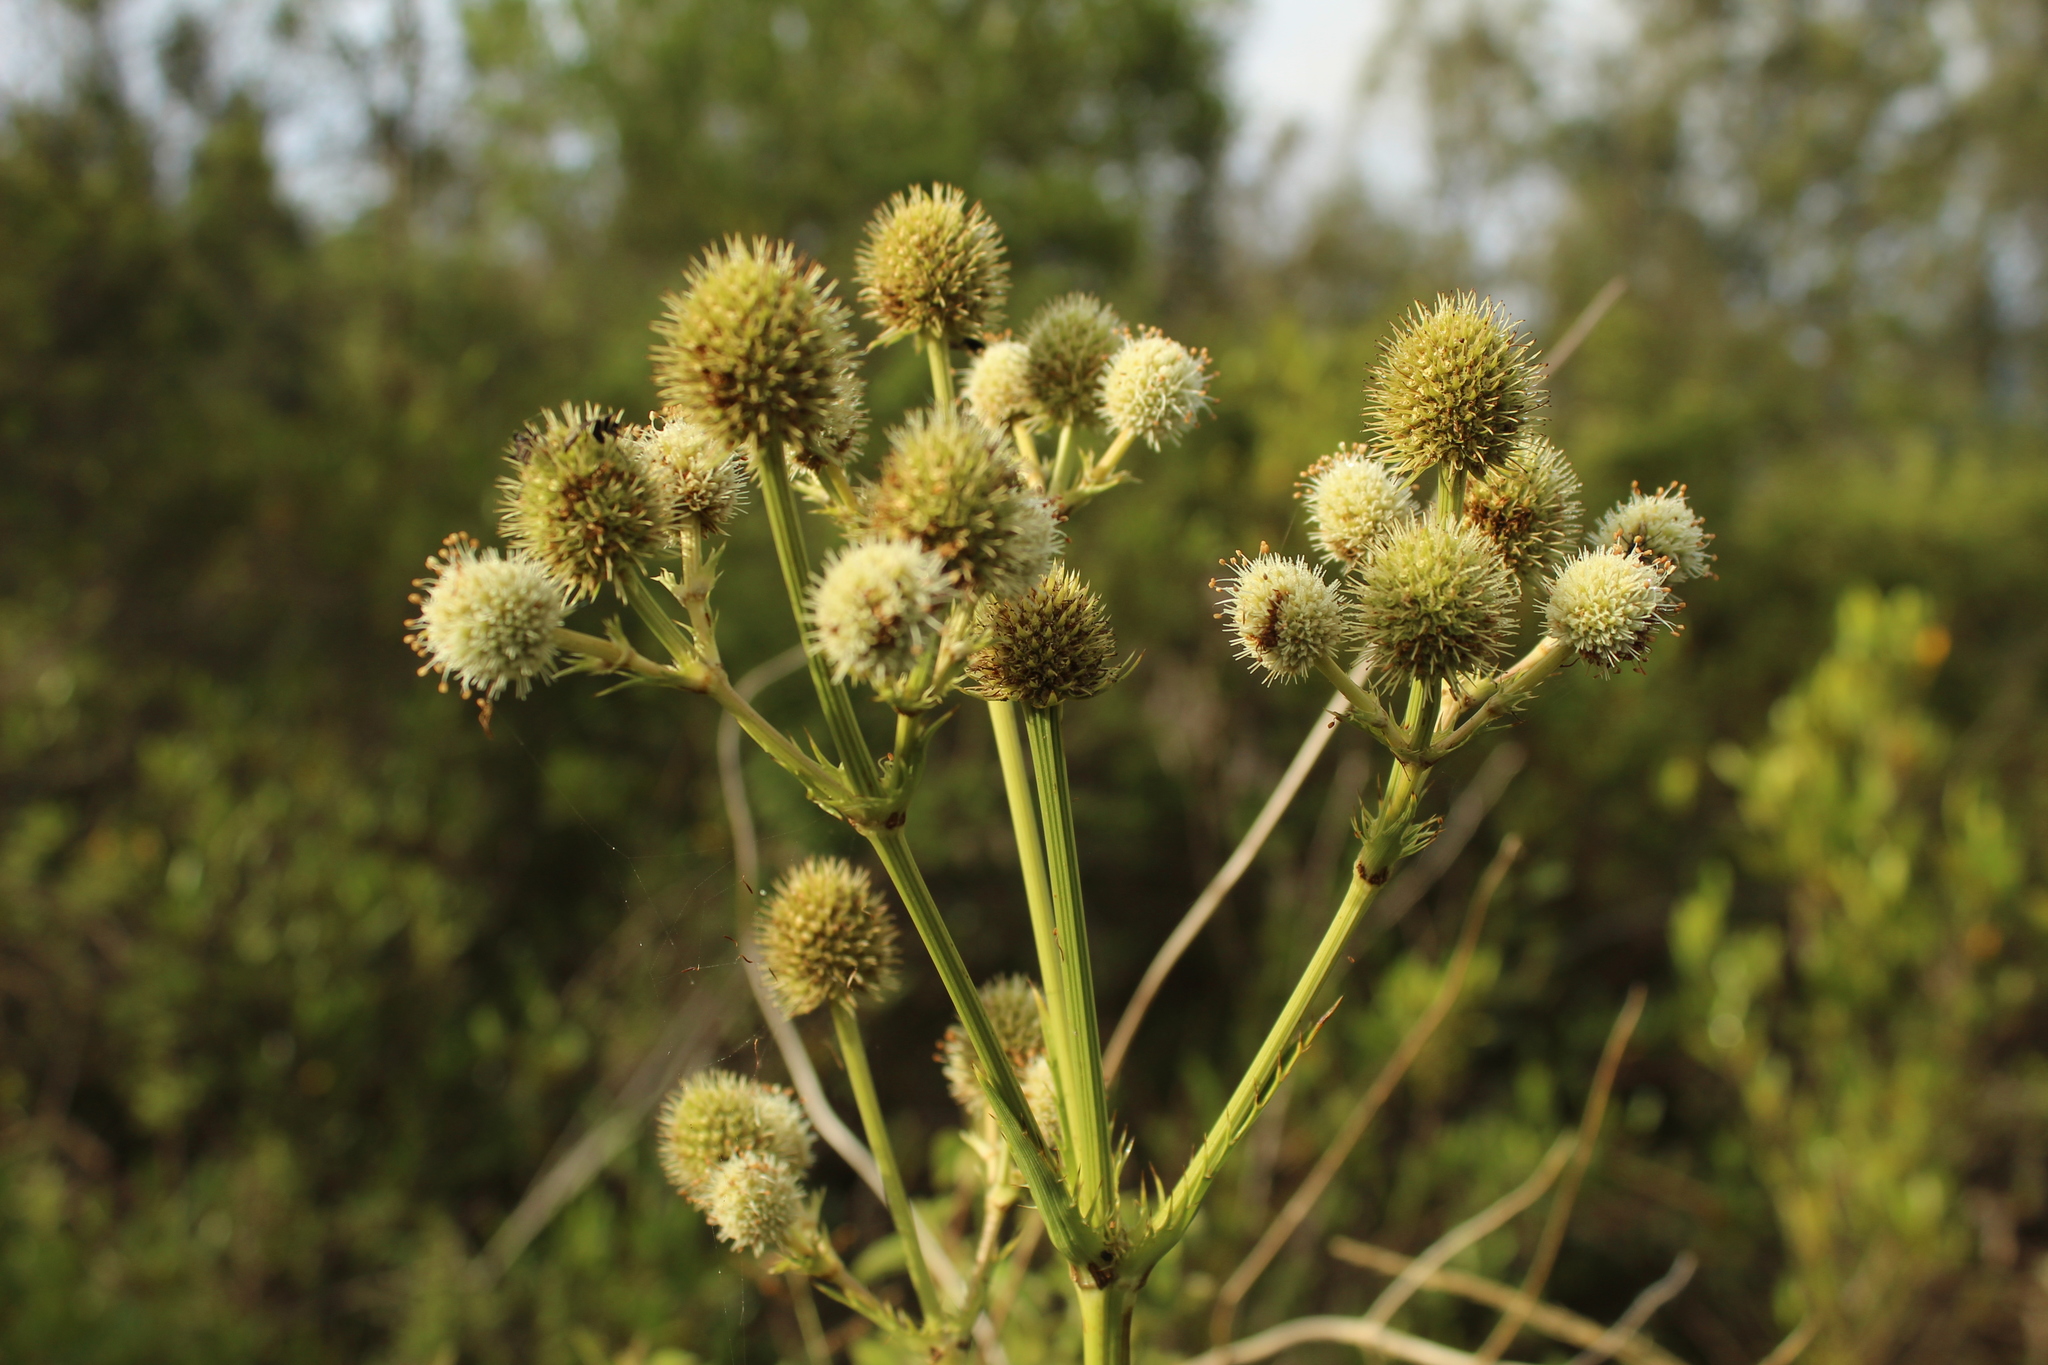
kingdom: Plantae
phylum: Tracheophyta
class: Magnoliopsida
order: Apiales
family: Apiaceae
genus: Eryngium
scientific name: Eryngium humboldtii
